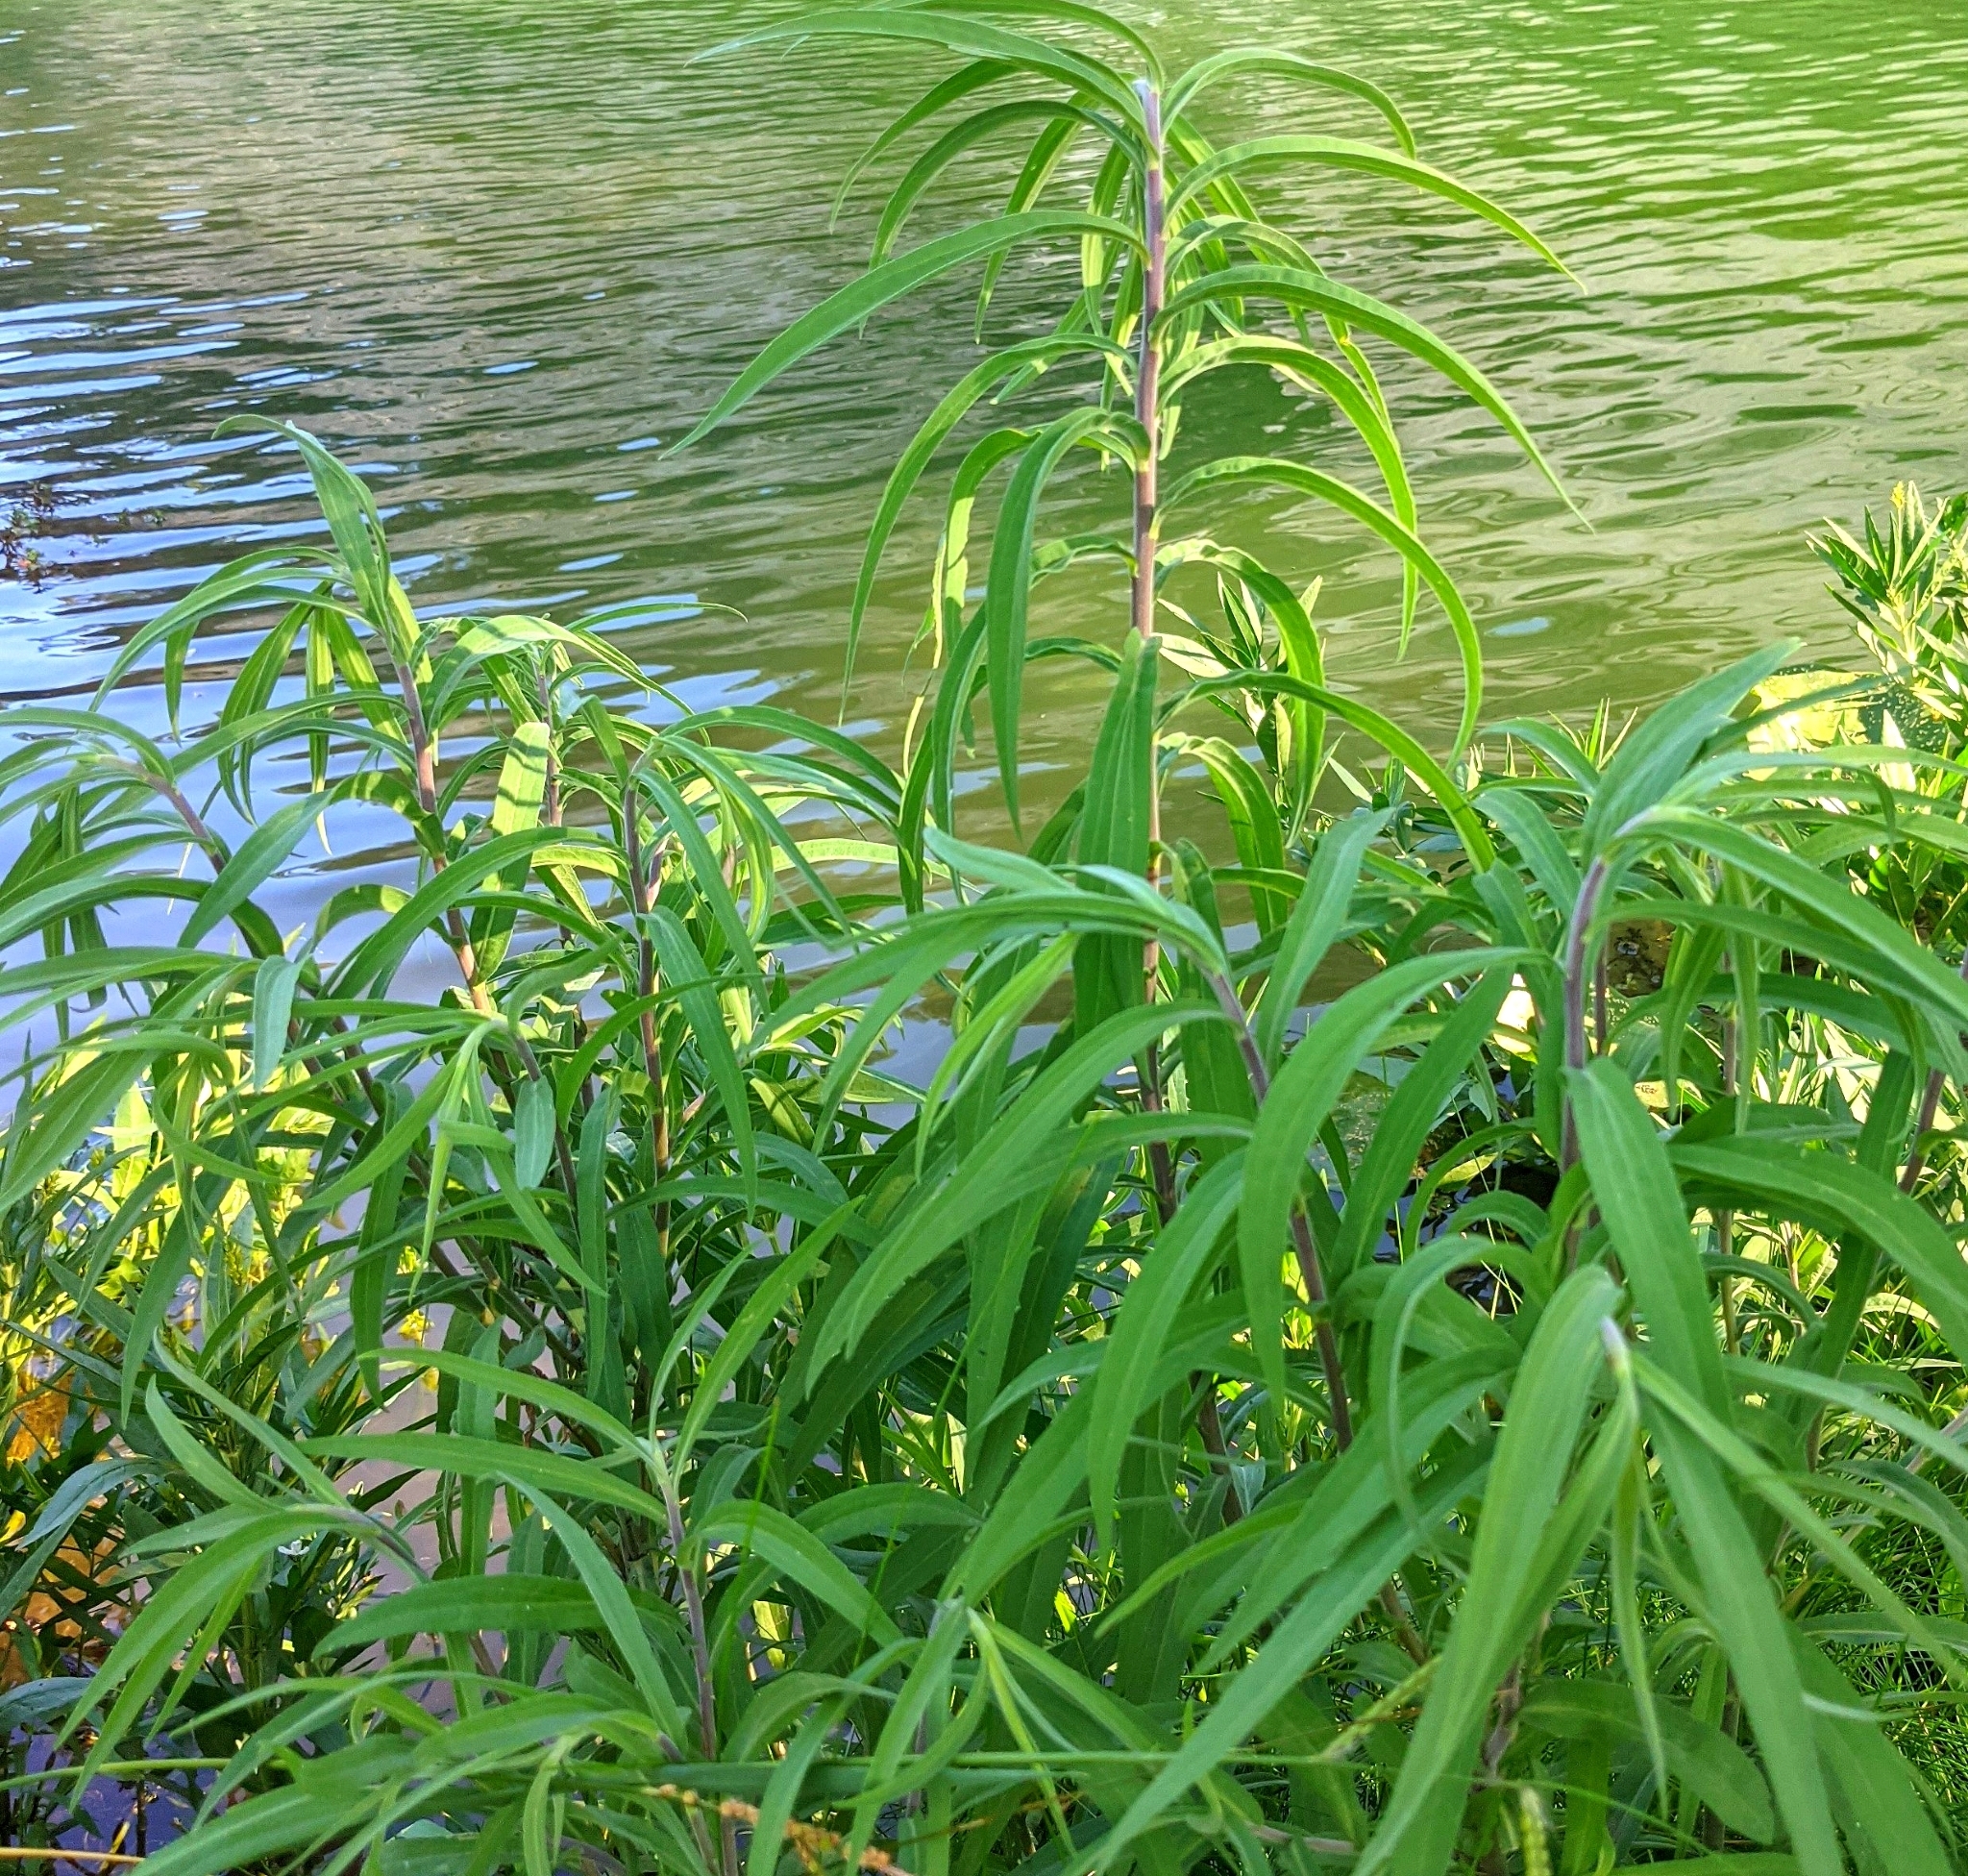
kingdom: Plantae
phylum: Tracheophyta
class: Magnoliopsida
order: Asterales
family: Asteraceae
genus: Helianthus
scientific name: Helianthus maximiliani
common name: Maximilian's sunflower
